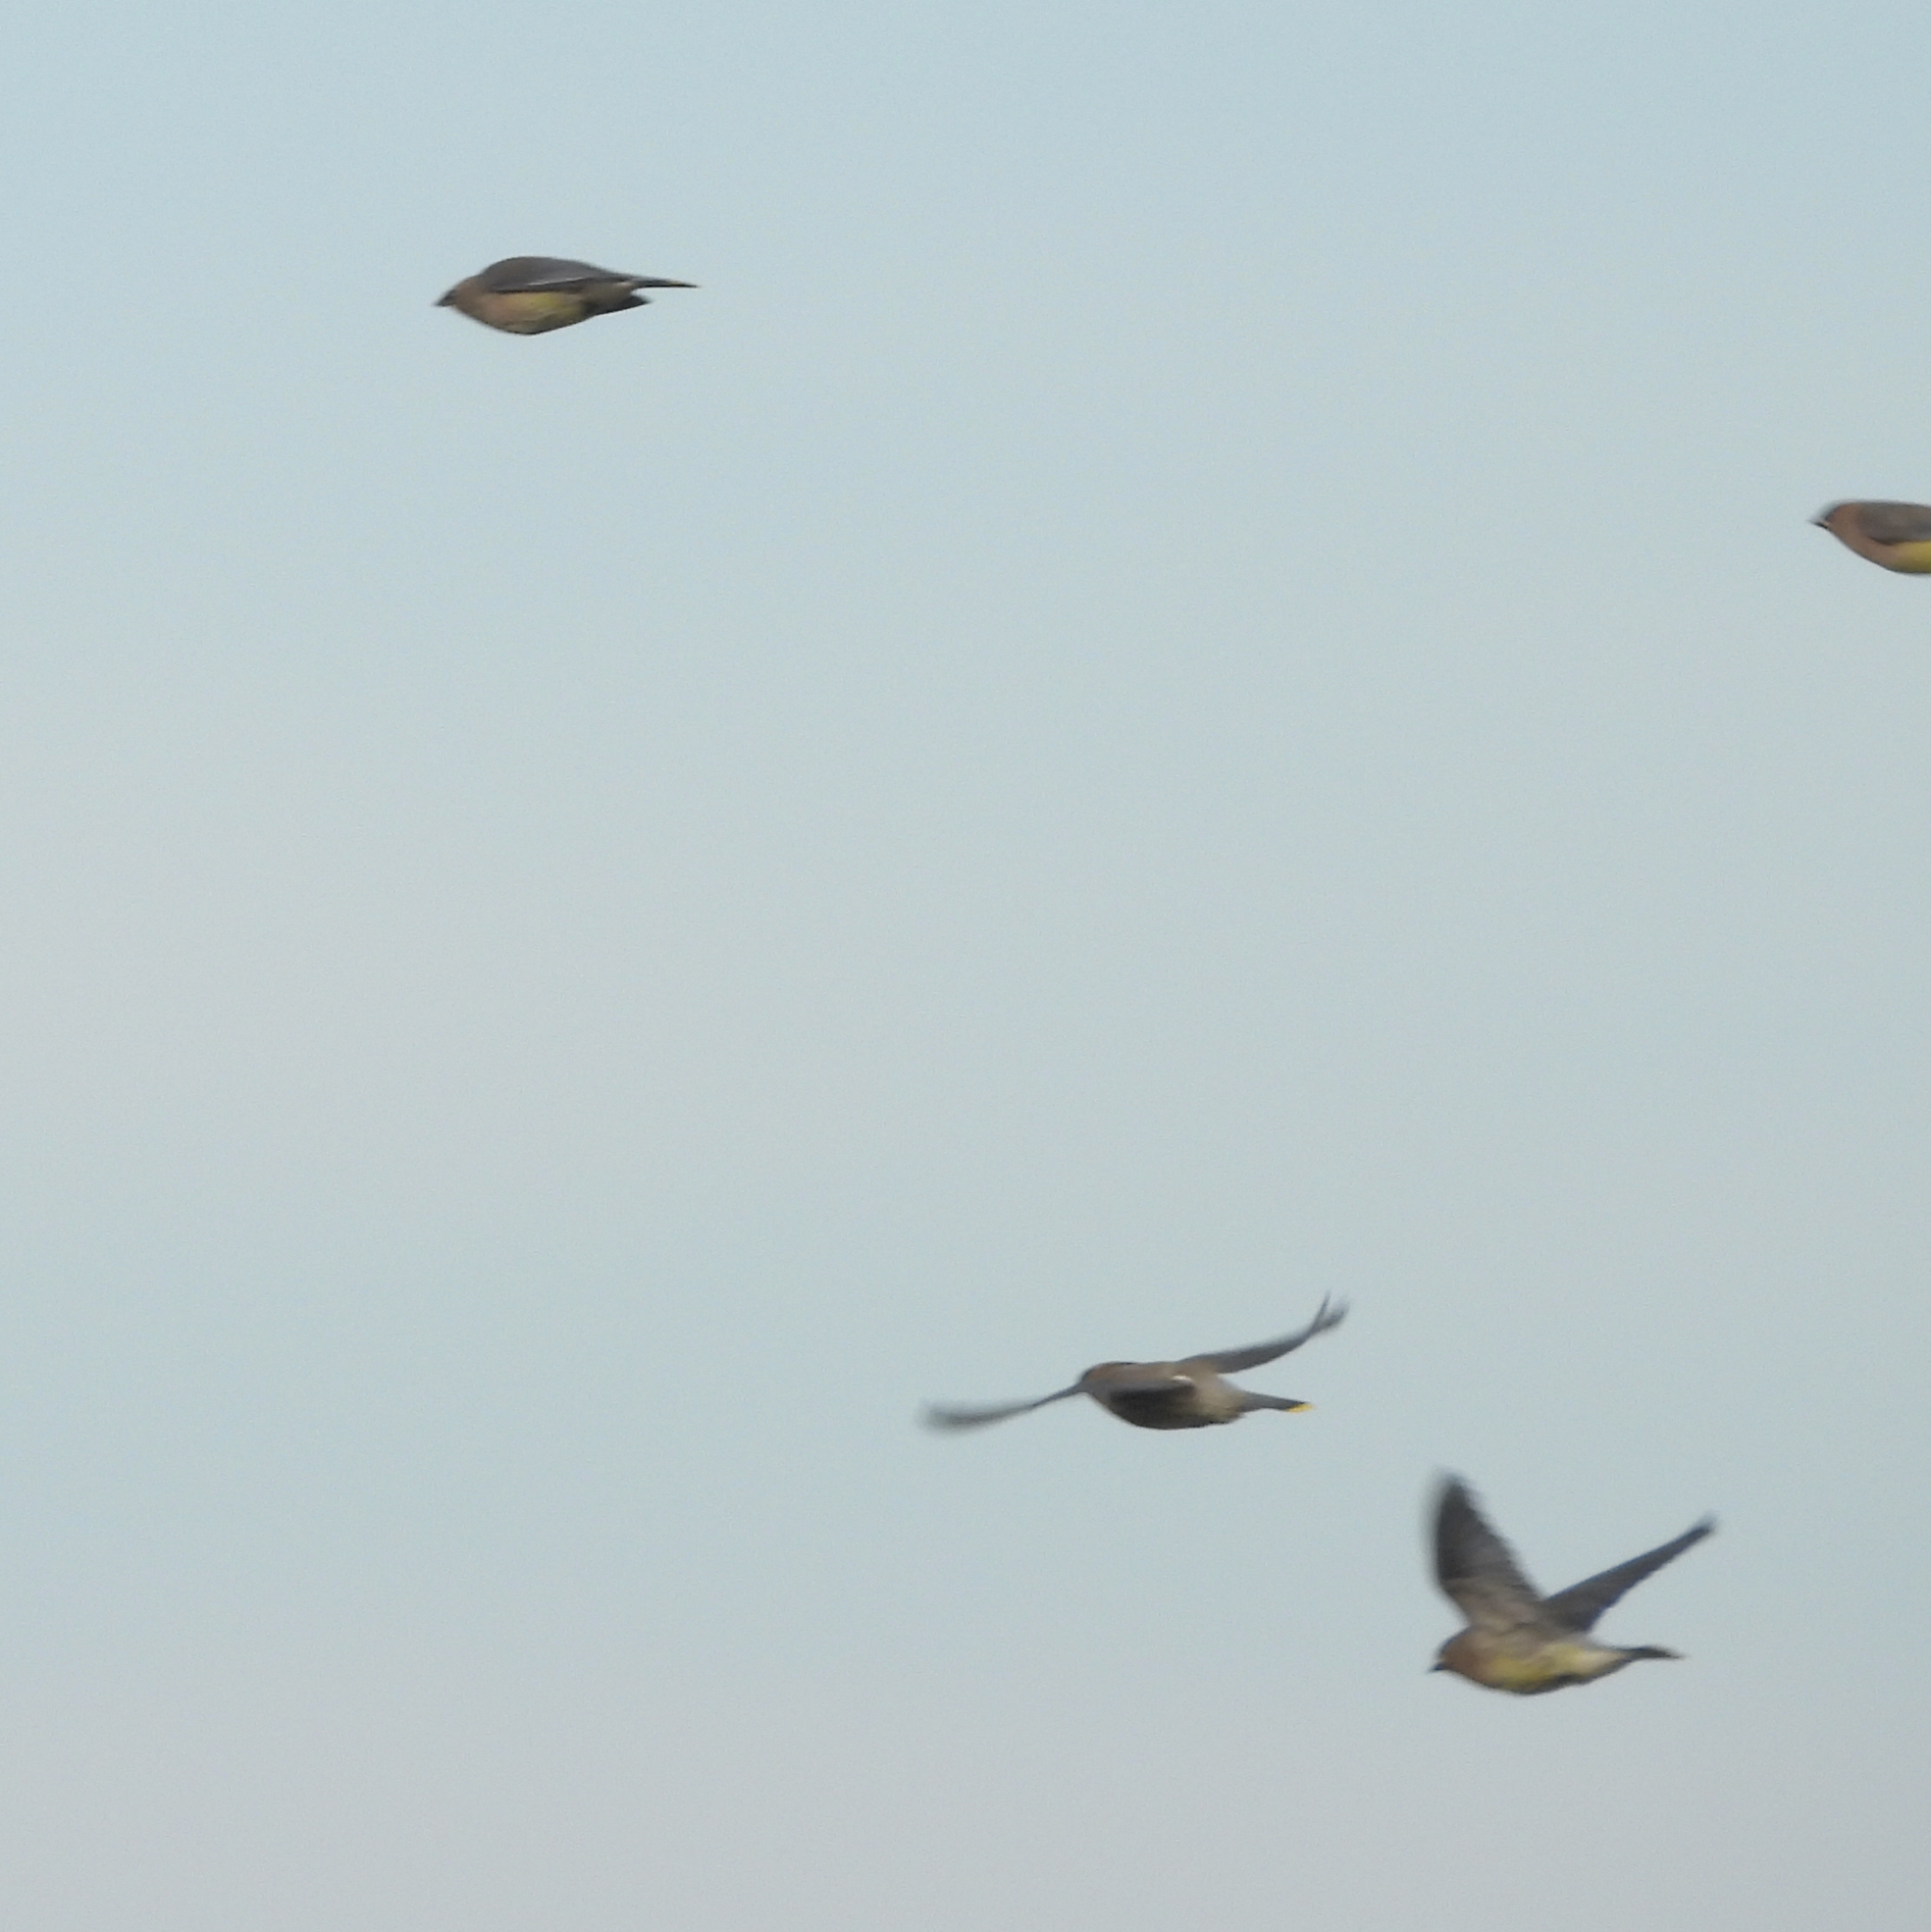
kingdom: Animalia
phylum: Chordata
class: Aves
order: Passeriformes
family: Bombycillidae
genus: Bombycilla
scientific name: Bombycilla cedrorum
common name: Cedar waxwing
